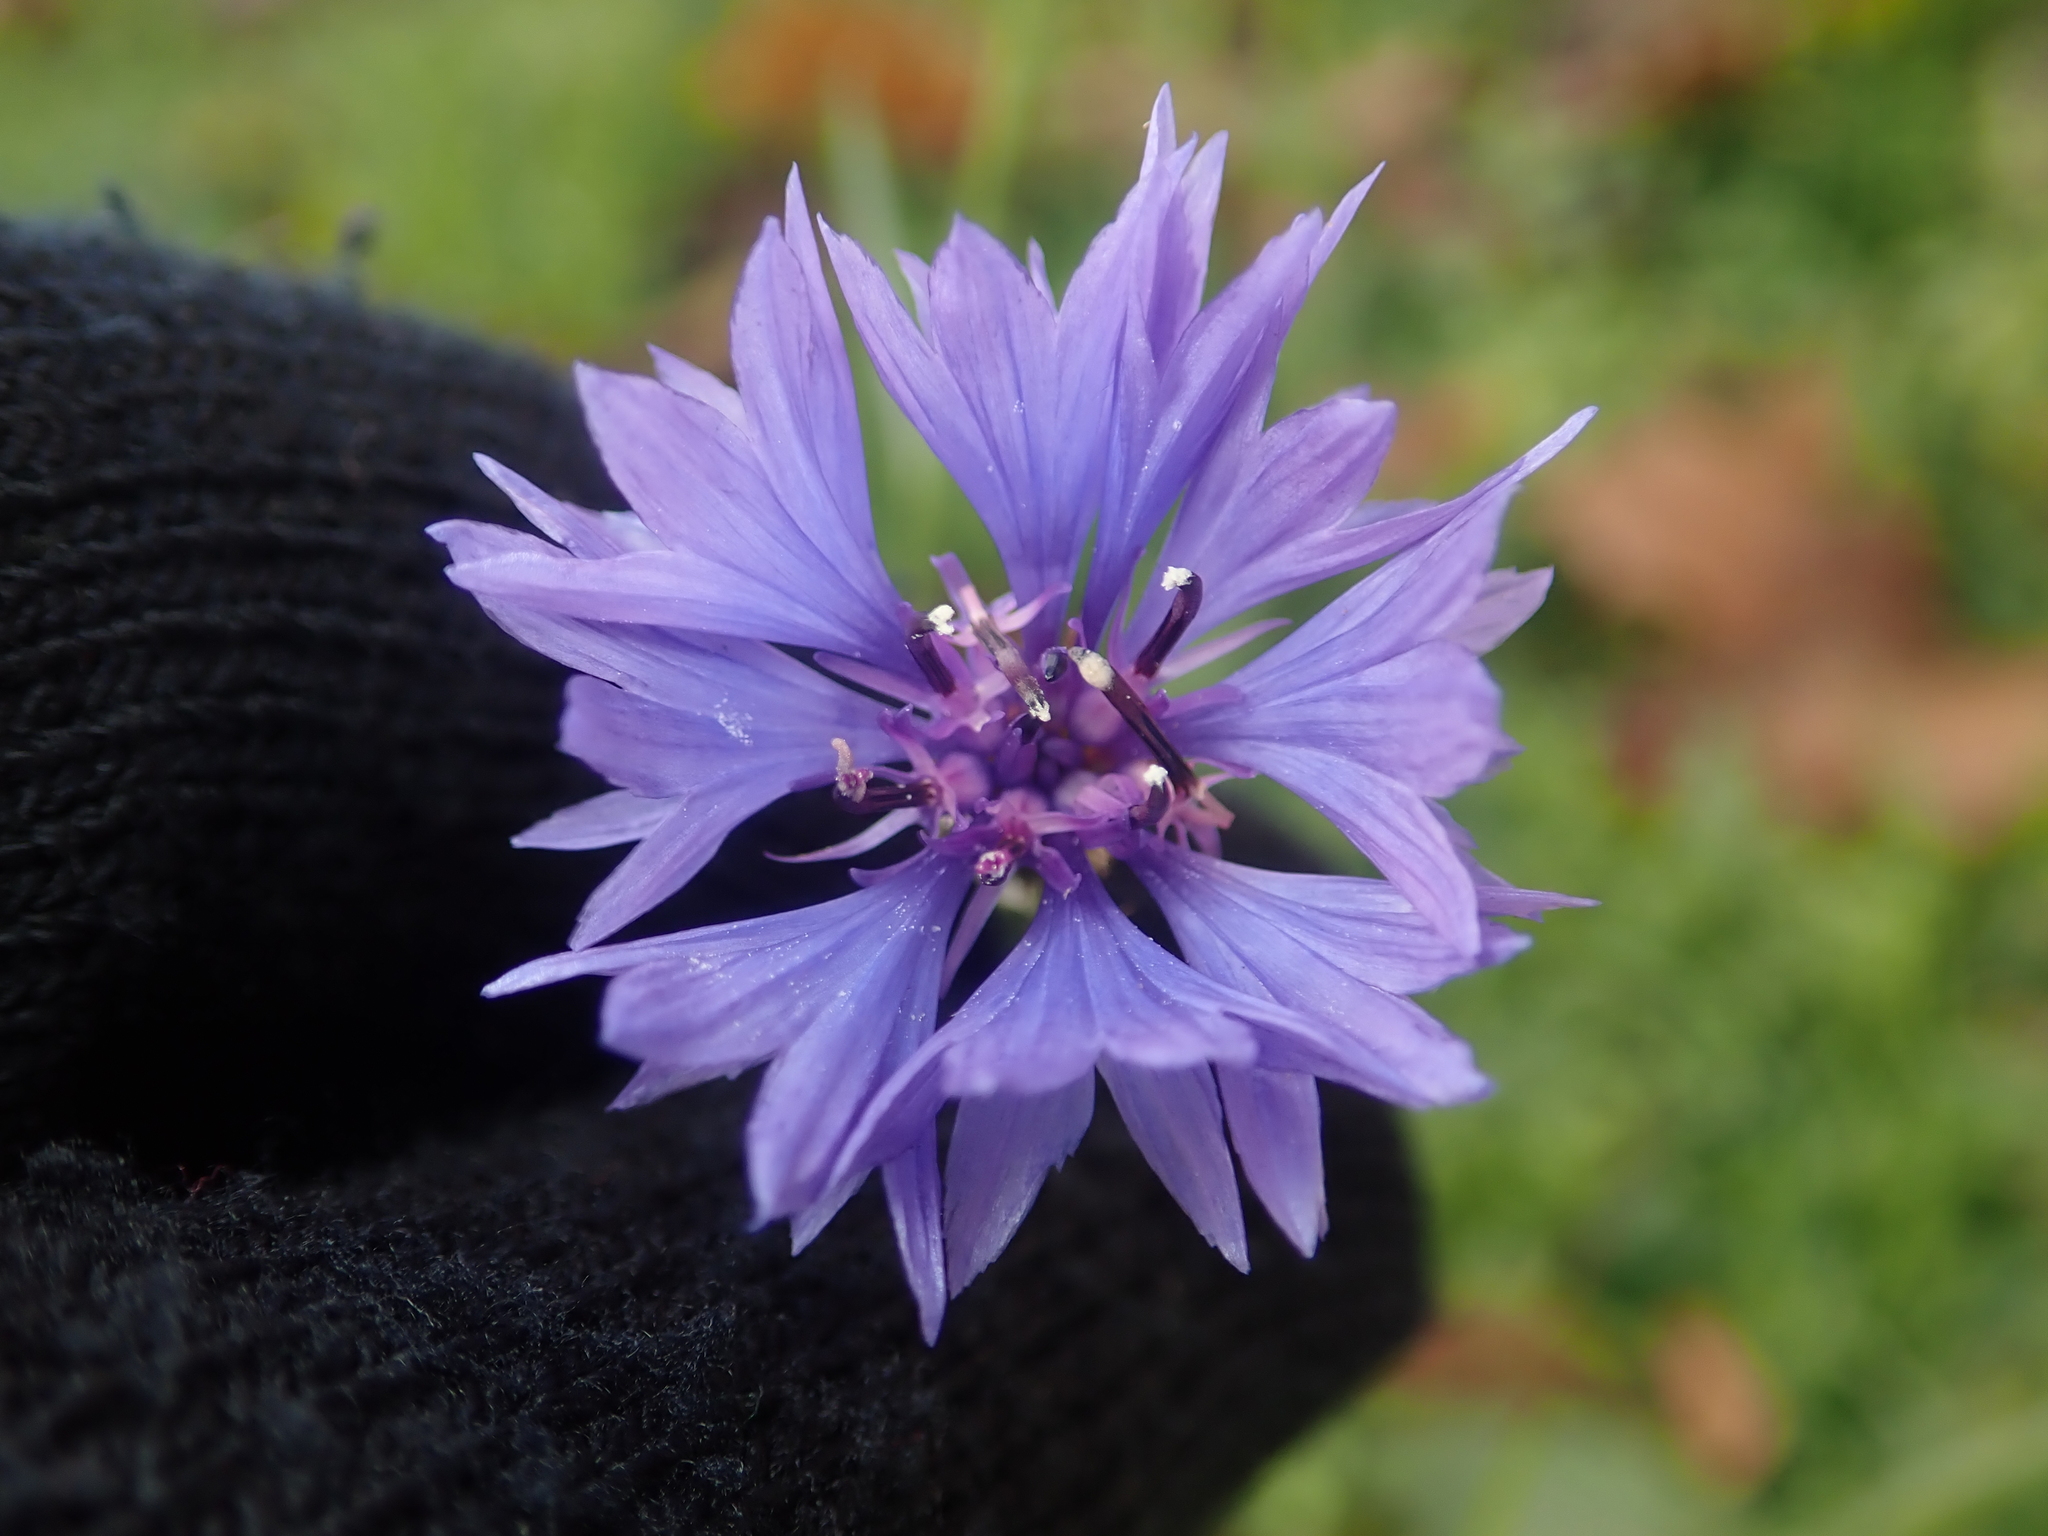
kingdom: Plantae
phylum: Tracheophyta
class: Magnoliopsida
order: Asterales
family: Asteraceae
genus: Centaurea
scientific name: Centaurea cyanus
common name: Cornflower
